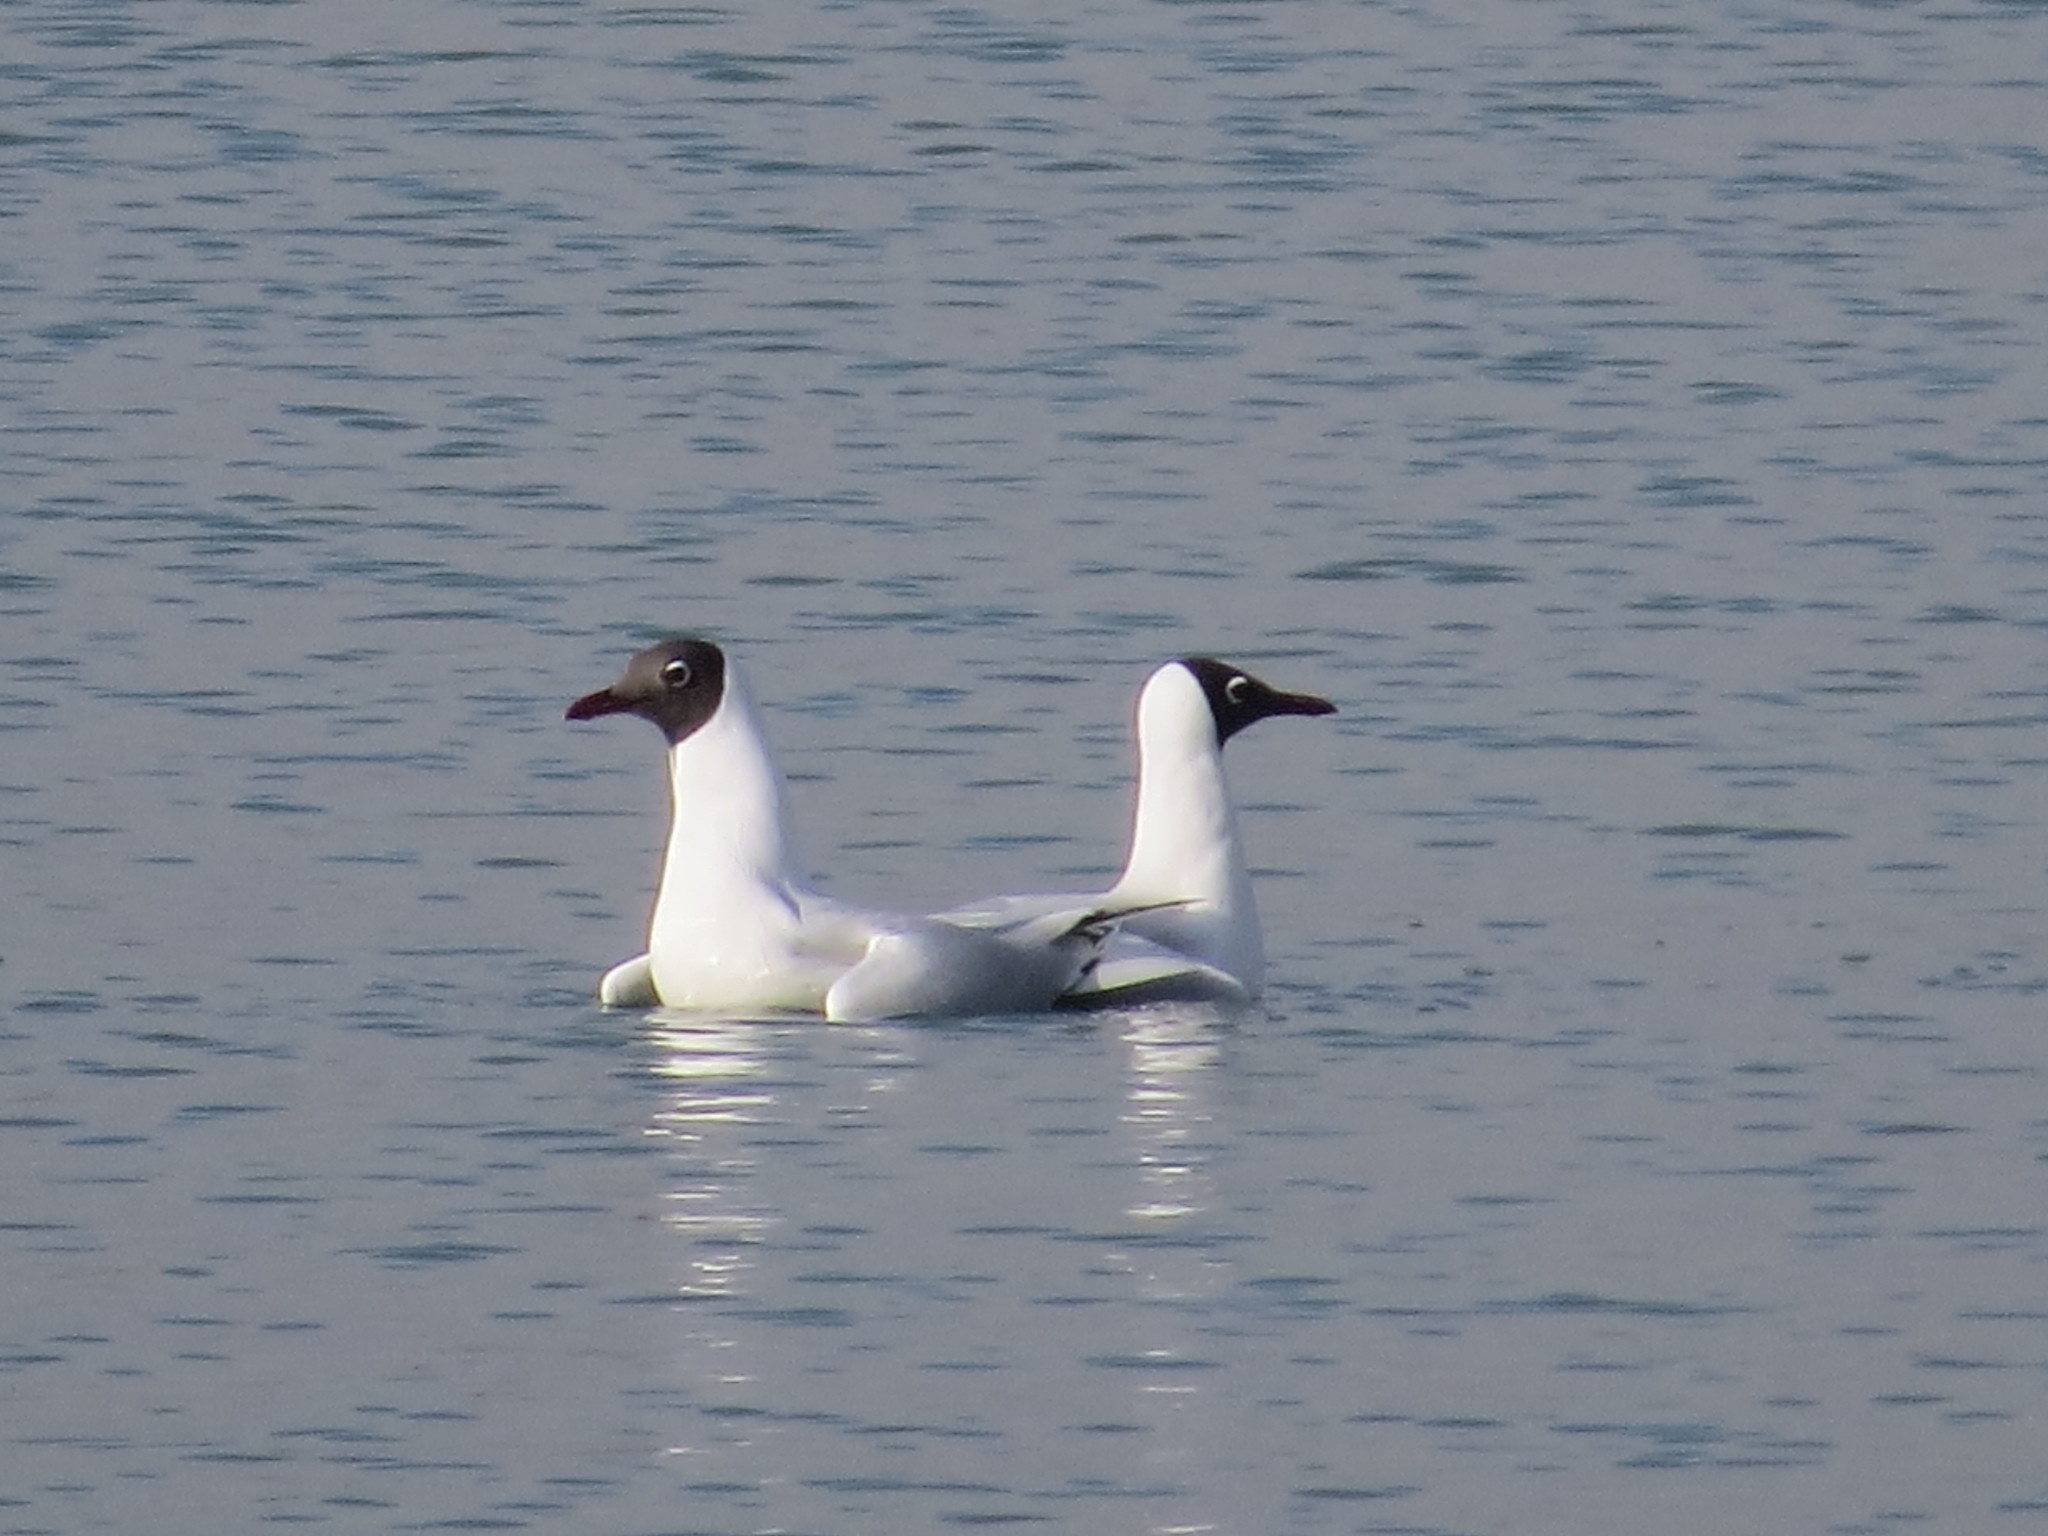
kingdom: Animalia
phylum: Chordata
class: Aves
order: Charadriiformes
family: Laridae
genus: Chroicocephalus
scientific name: Chroicocephalus maculipennis
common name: Brown-hooded gull
